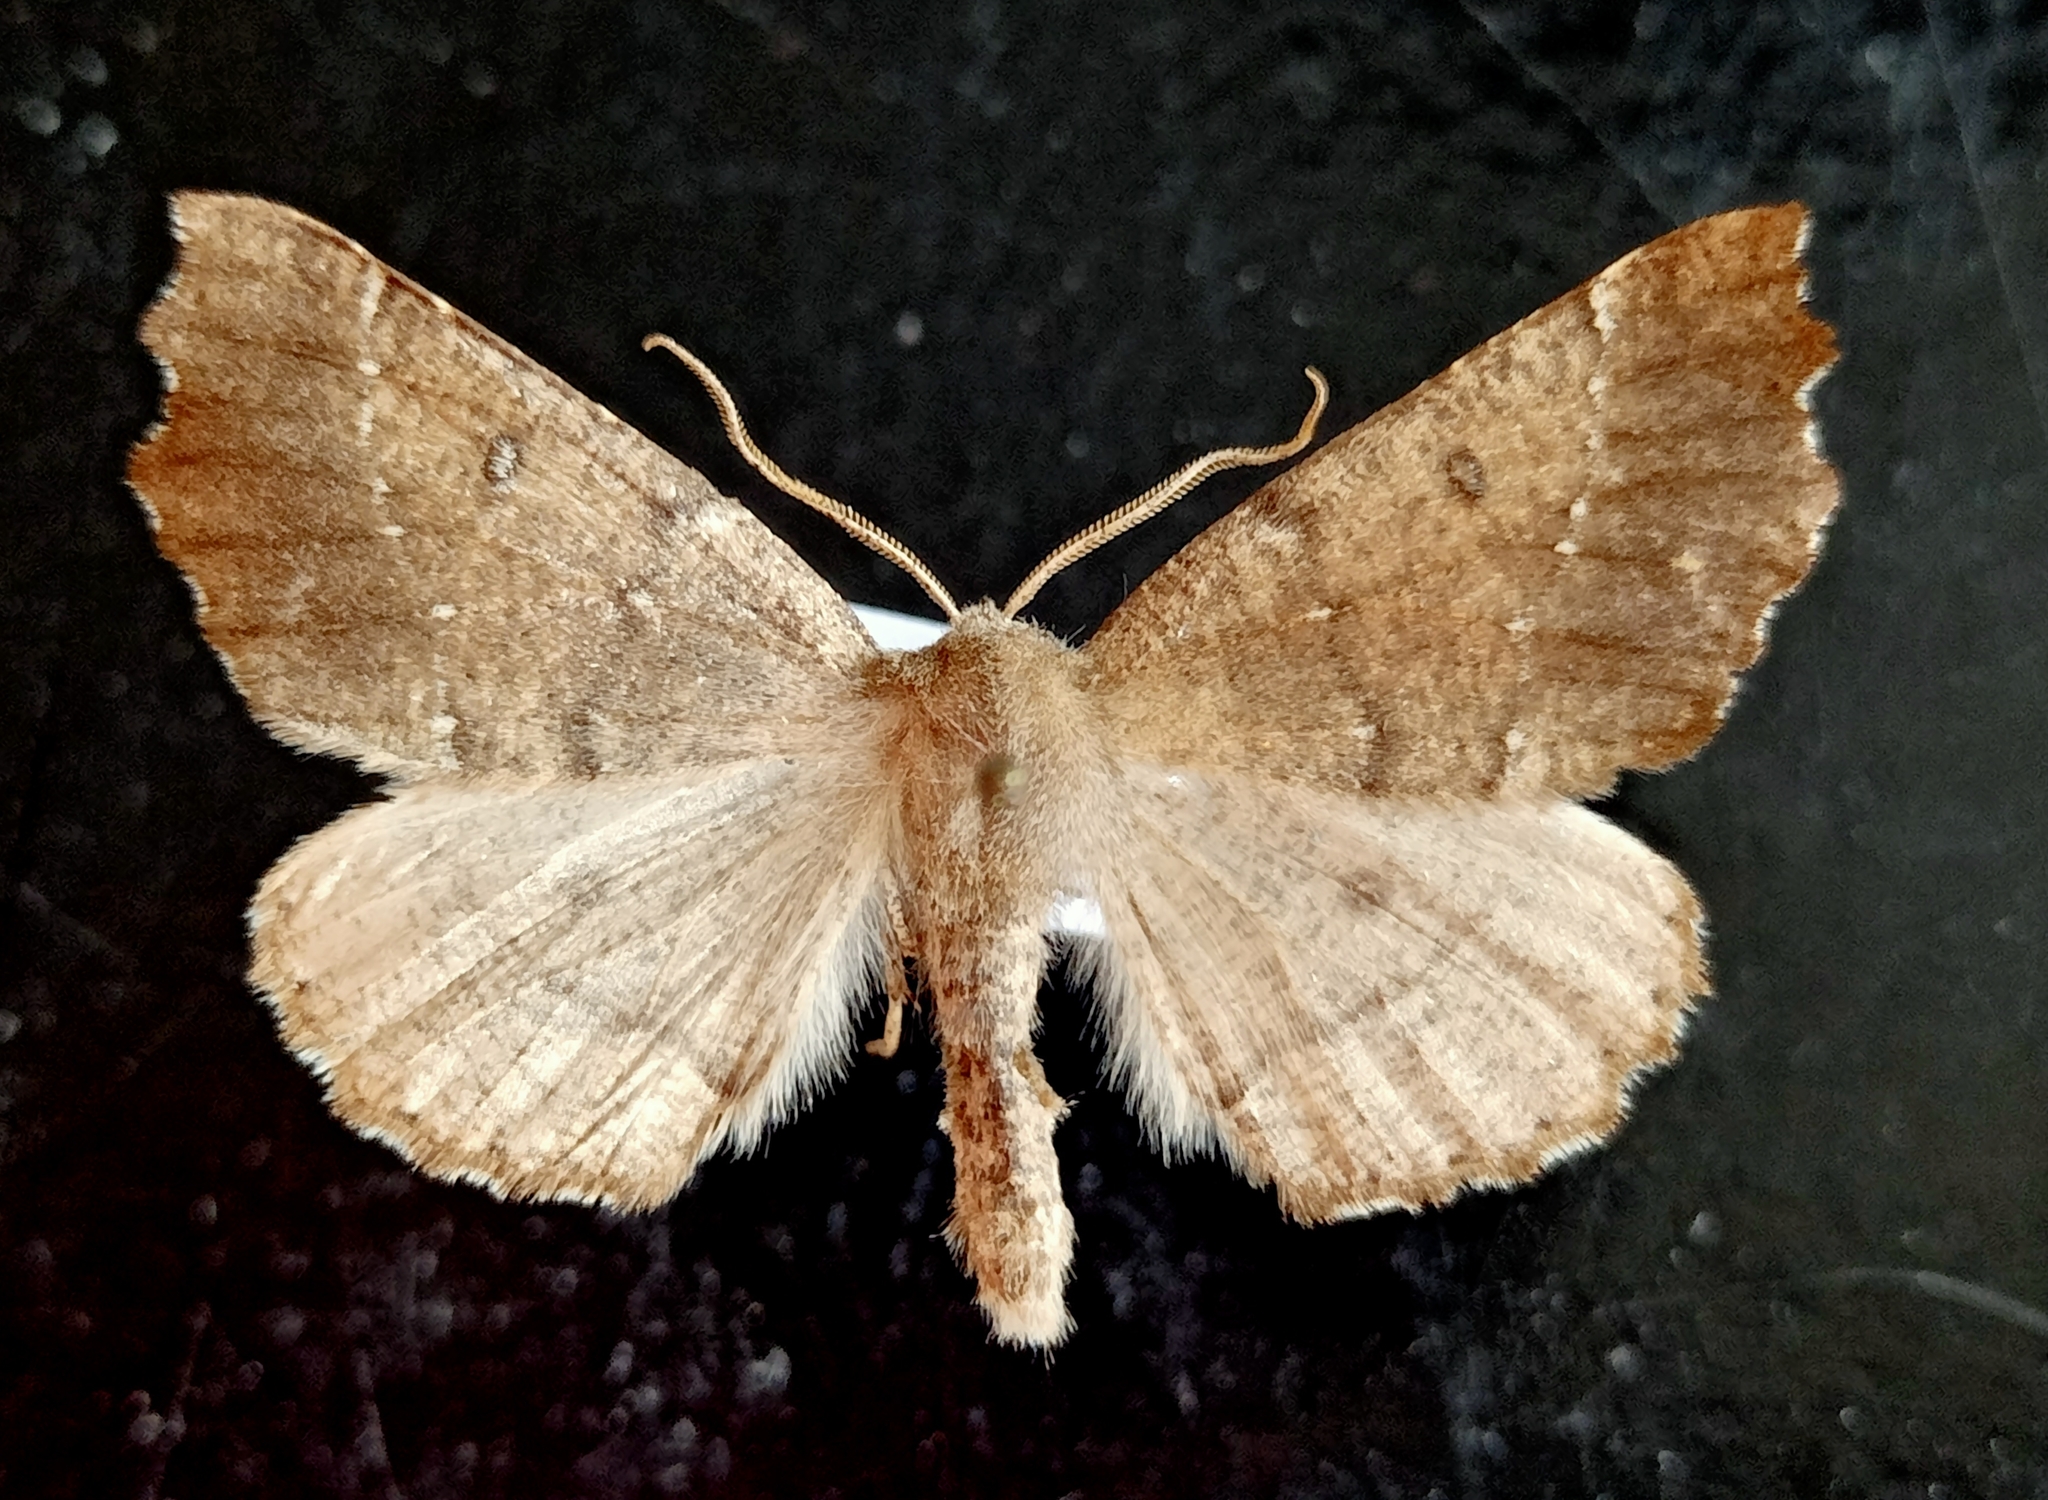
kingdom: Animalia
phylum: Arthropoda
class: Insecta
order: Lepidoptera
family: Geometridae
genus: Odontopera
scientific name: Odontopera bidentata
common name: Scalloped hazel
